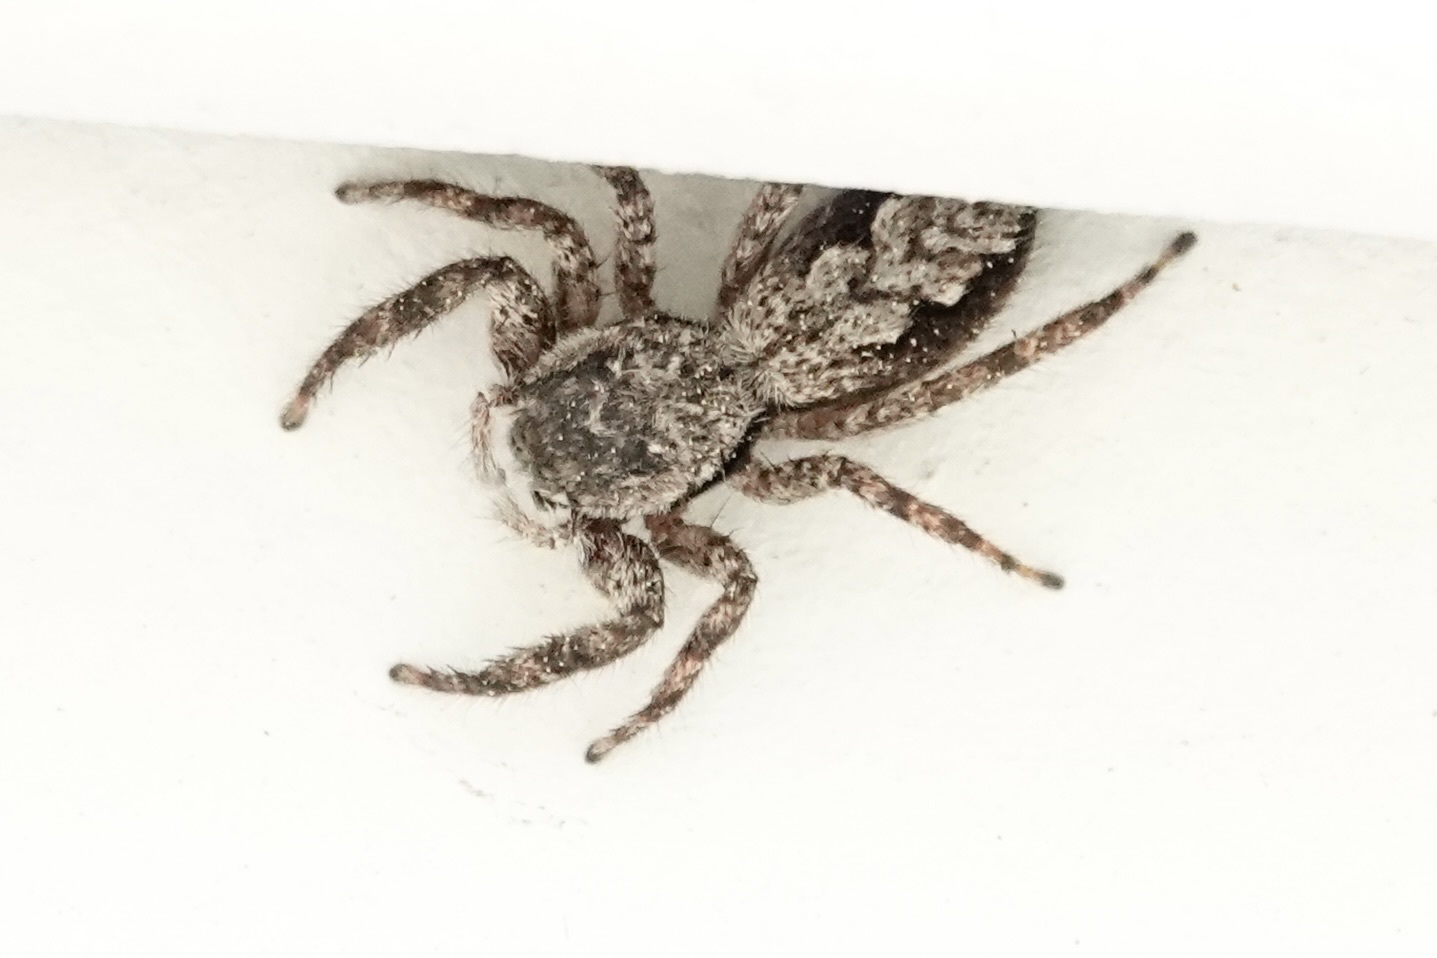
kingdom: Animalia
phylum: Arthropoda
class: Arachnida
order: Araneae
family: Salticidae
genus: Platycryptus
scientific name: Platycryptus undatus
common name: Tan jumping spider
